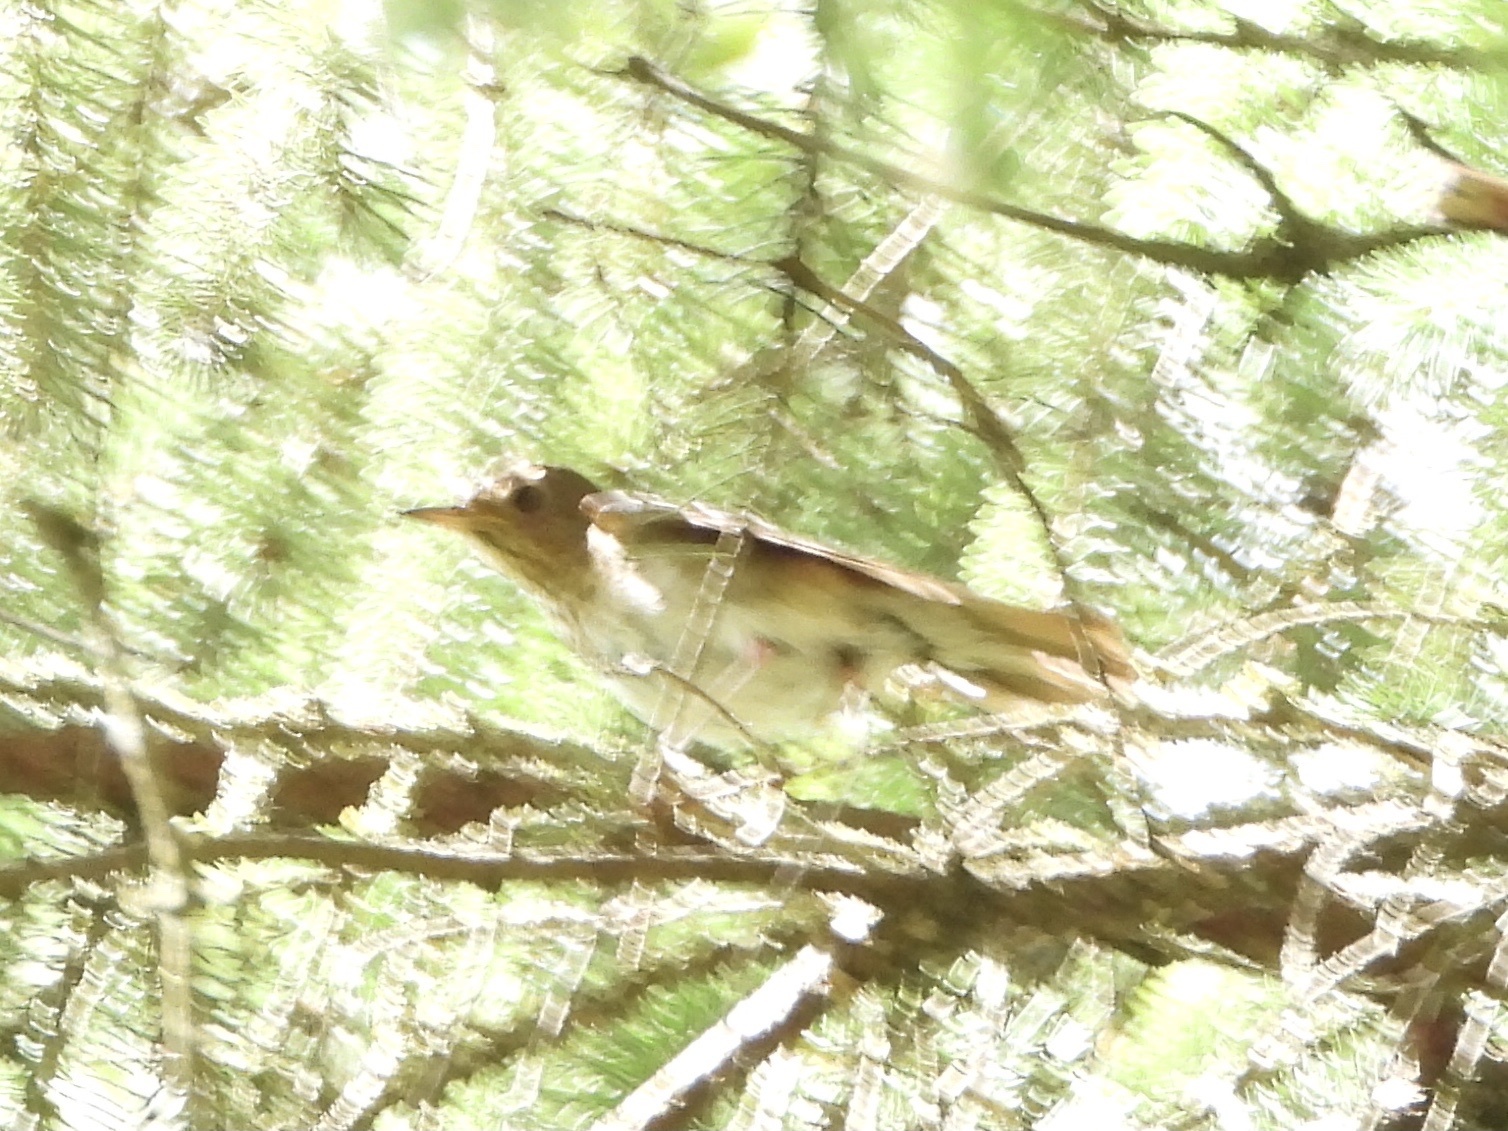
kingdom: Animalia
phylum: Chordata
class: Aves
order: Passeriformes
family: Turdidae
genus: Catharus
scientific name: Catharus ustulatus
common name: Swainson's thrush
